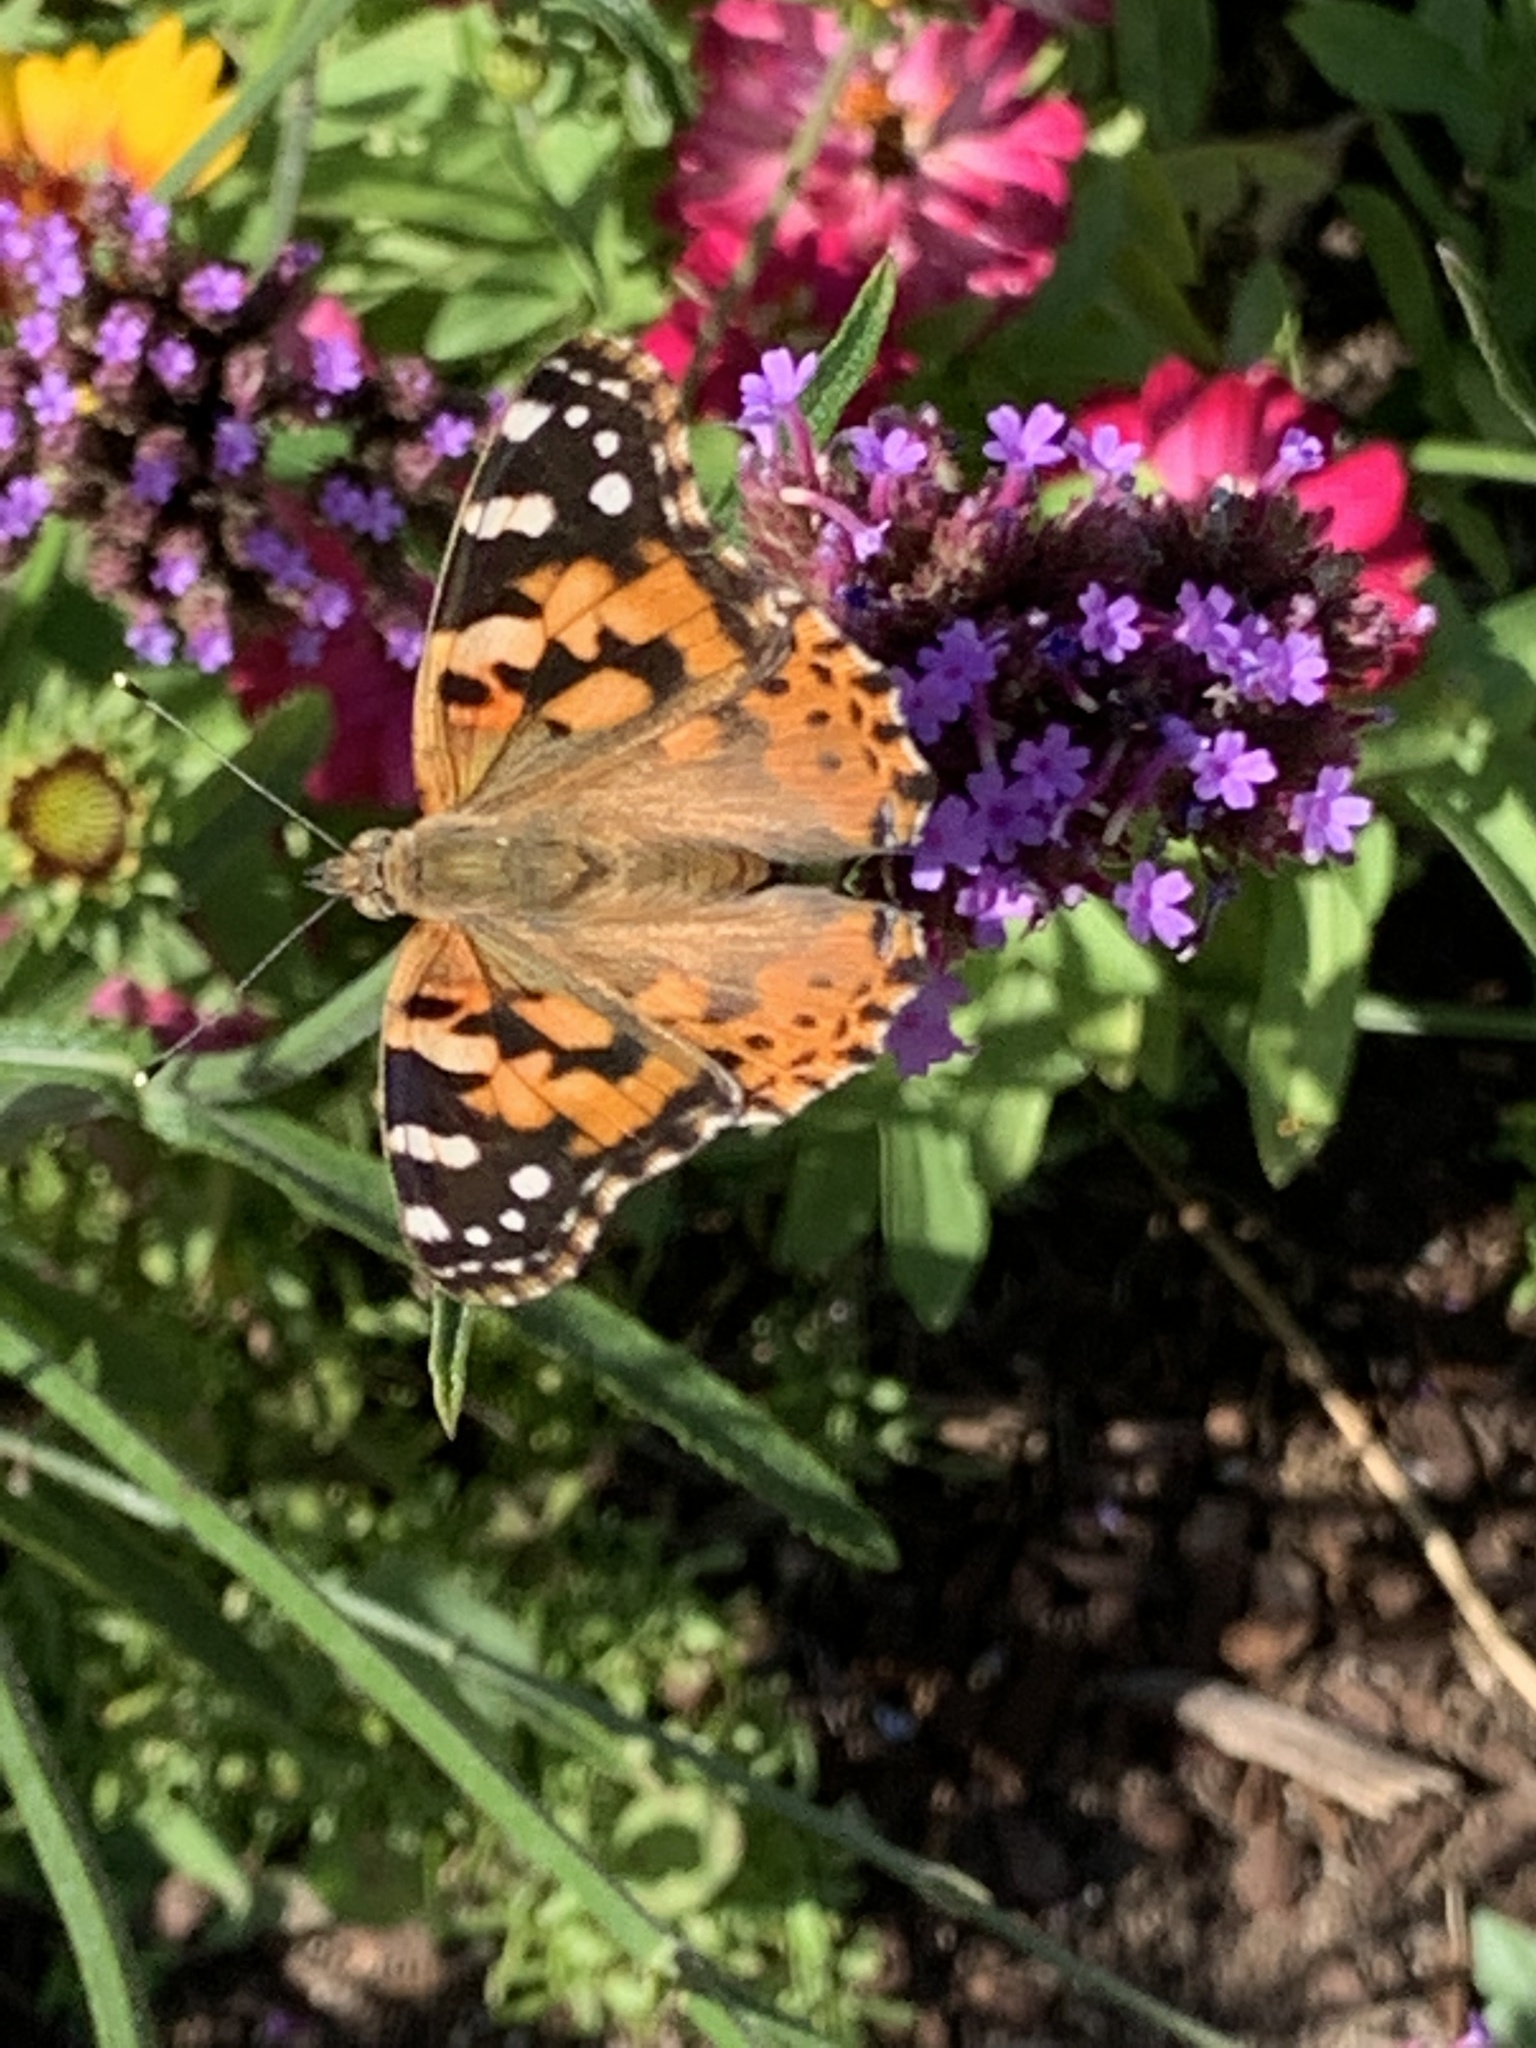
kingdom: Animalia
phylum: Arthropoda
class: Insecta
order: Lepidoptera
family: Nymphalidae
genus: Vanessa
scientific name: Vanessa cardui
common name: Painted lady
